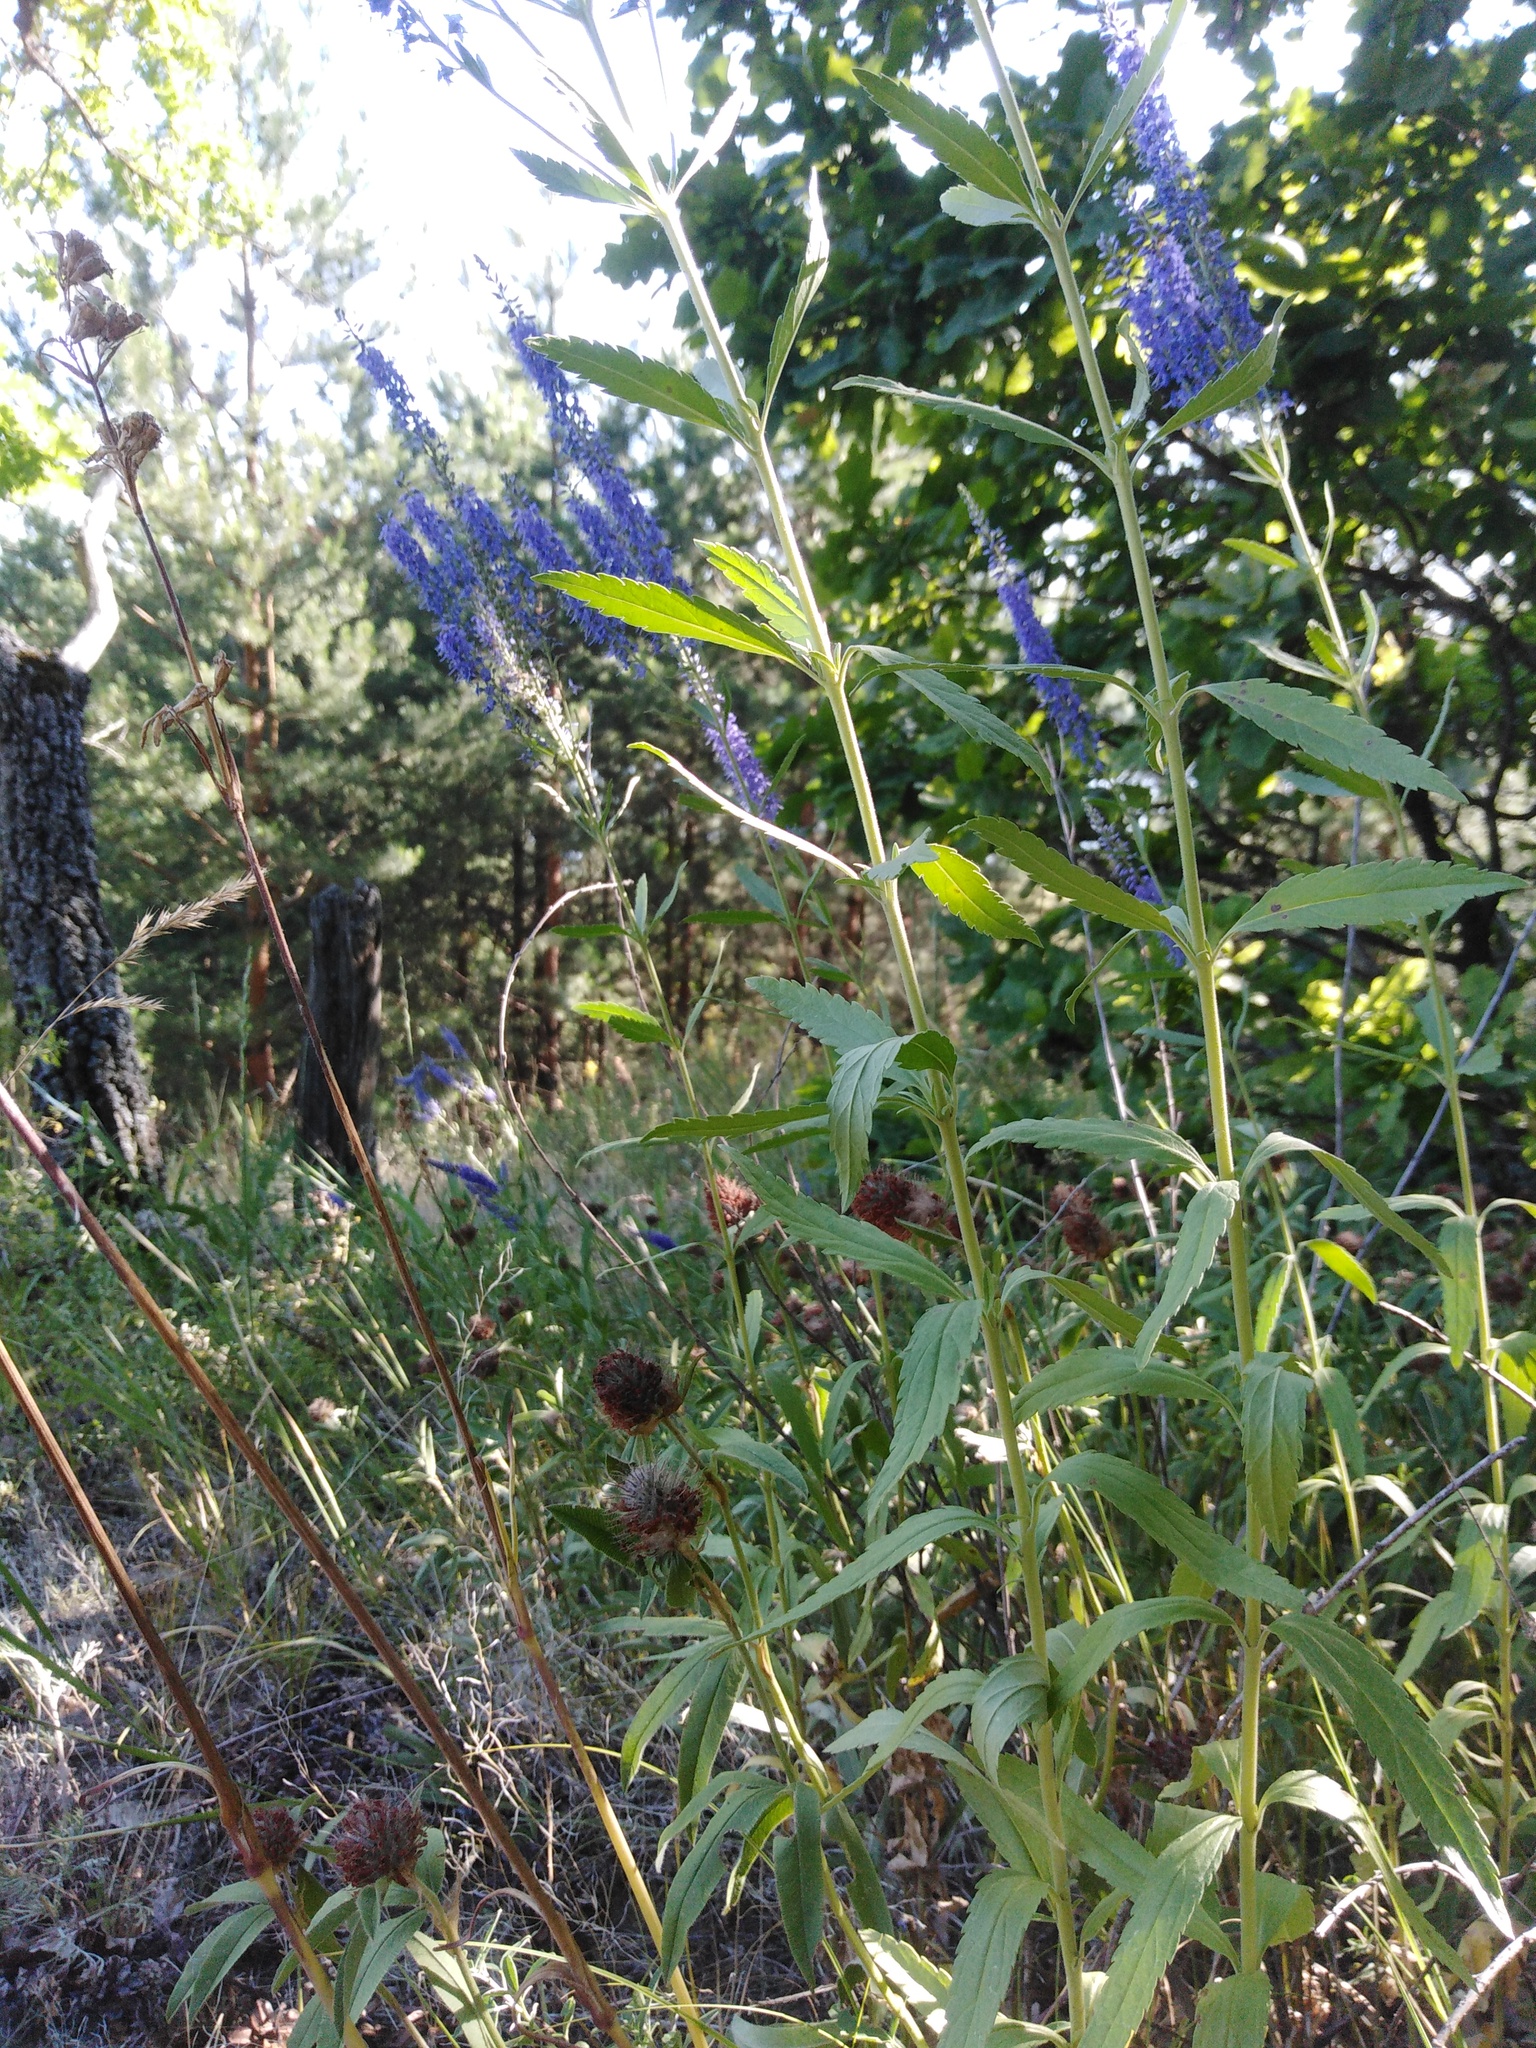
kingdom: Plantae
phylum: Tracheophyta
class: Magnoliopsida
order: Lamiales
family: Plantaginaceae
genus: Veronica
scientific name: Veronica spuria
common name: Bastard speedwell
